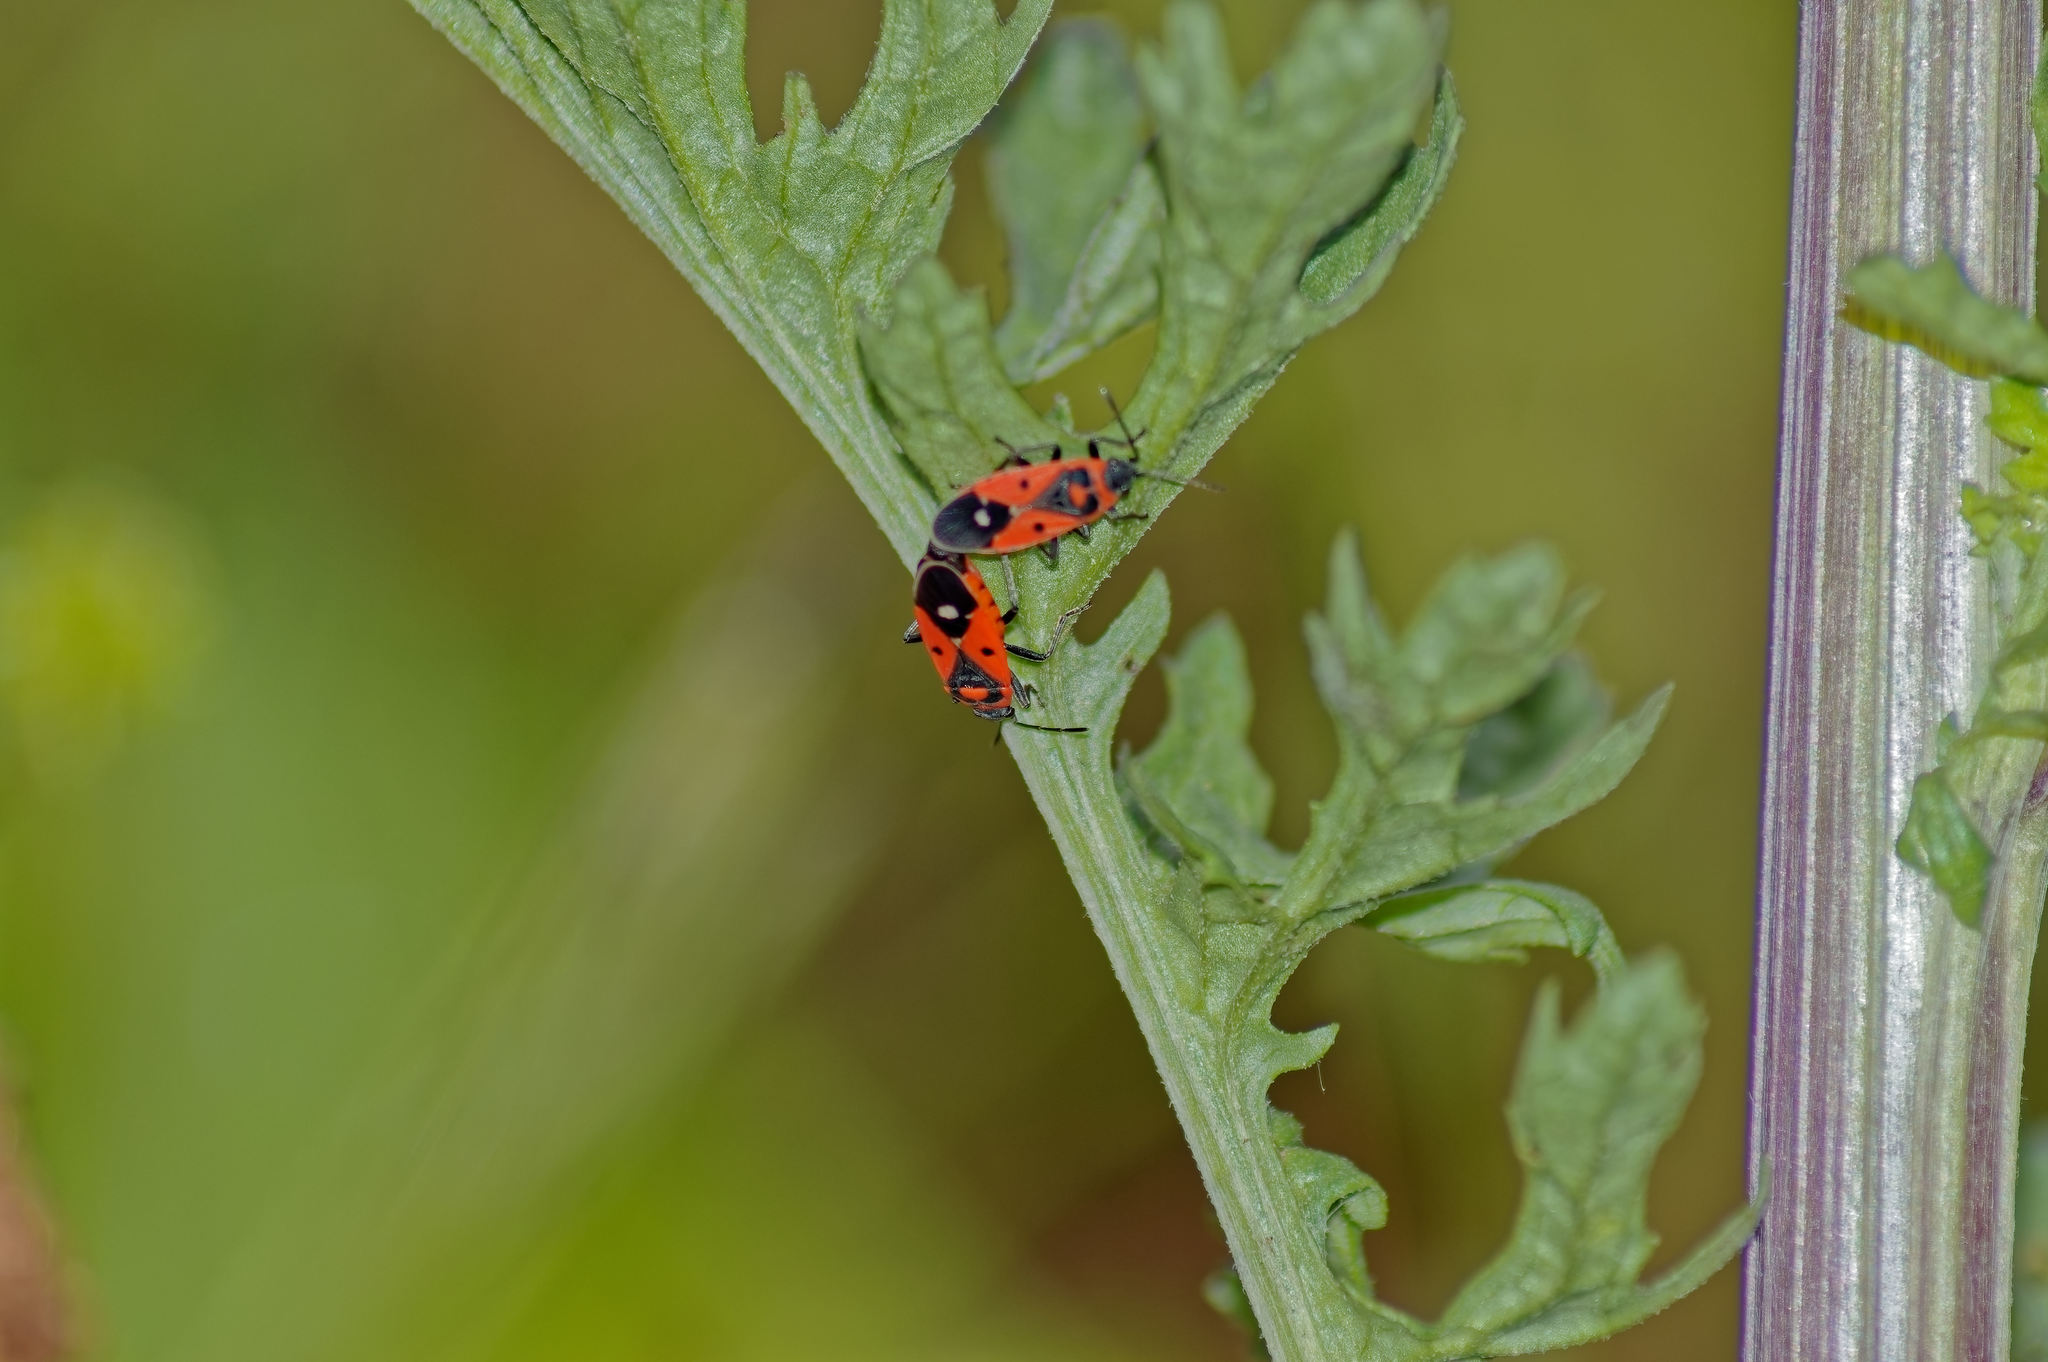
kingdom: Animalia
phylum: Arthropoda
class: Insecta
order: Hemiptera
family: Lygaeidae
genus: Melanocoryphus
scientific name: Melanocoryphus albomaculatus
